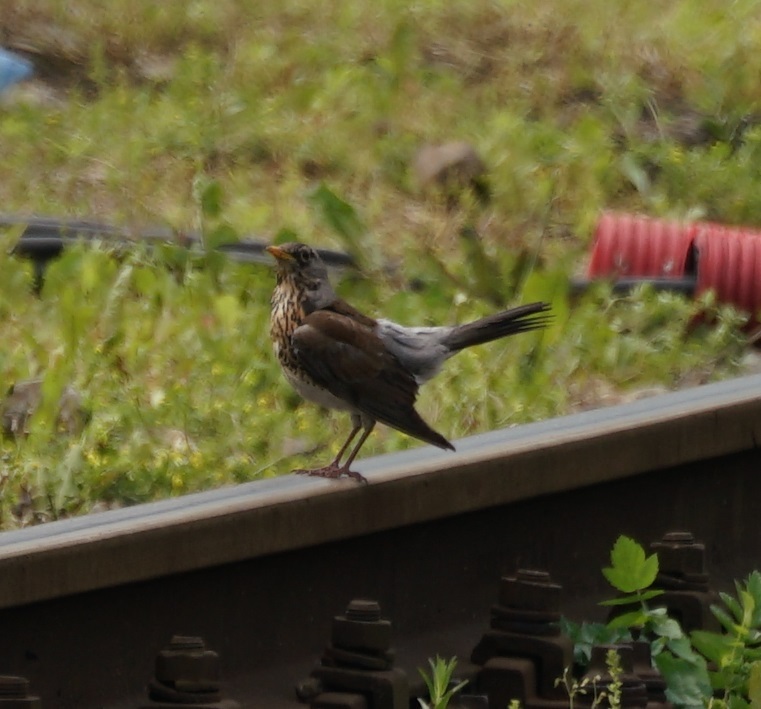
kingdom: Animalia
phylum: Chordata
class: Aves
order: Passeriformes
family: Turdidae
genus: Turdus
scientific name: Turdus pilaris
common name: Fieldfare
